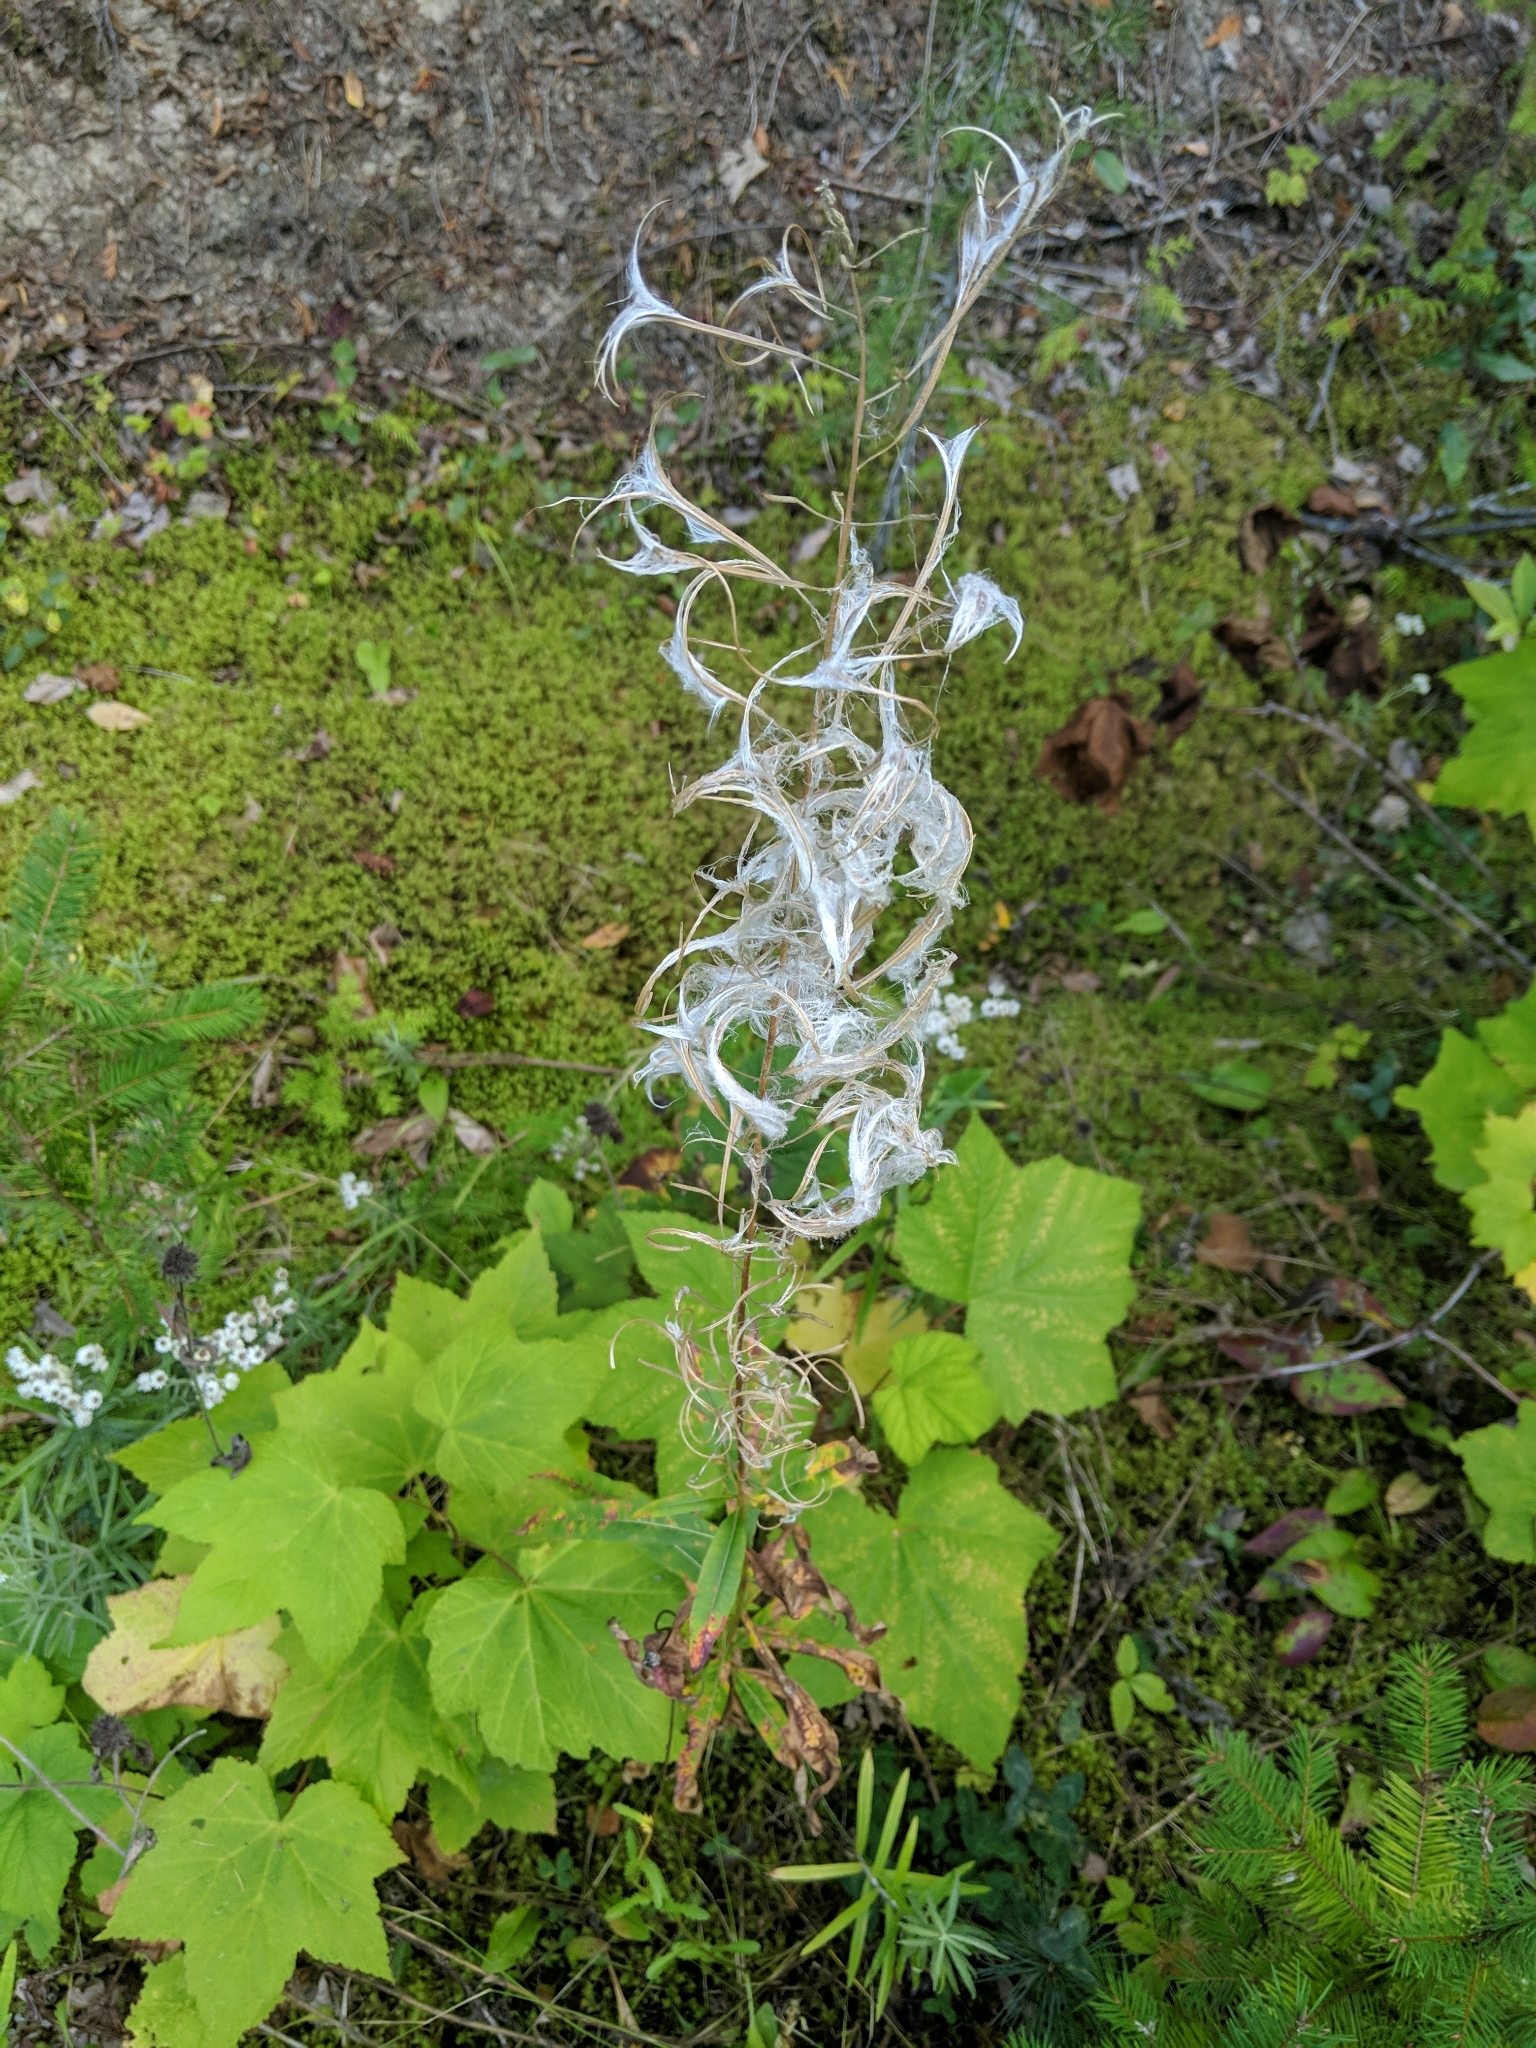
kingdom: Plantae
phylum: Tracheophyta
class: Magnoliopsida
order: Myrtales
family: Onagraceae
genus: Chamaenerion
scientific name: Chamaenerion angustifolium
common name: Fireweed
